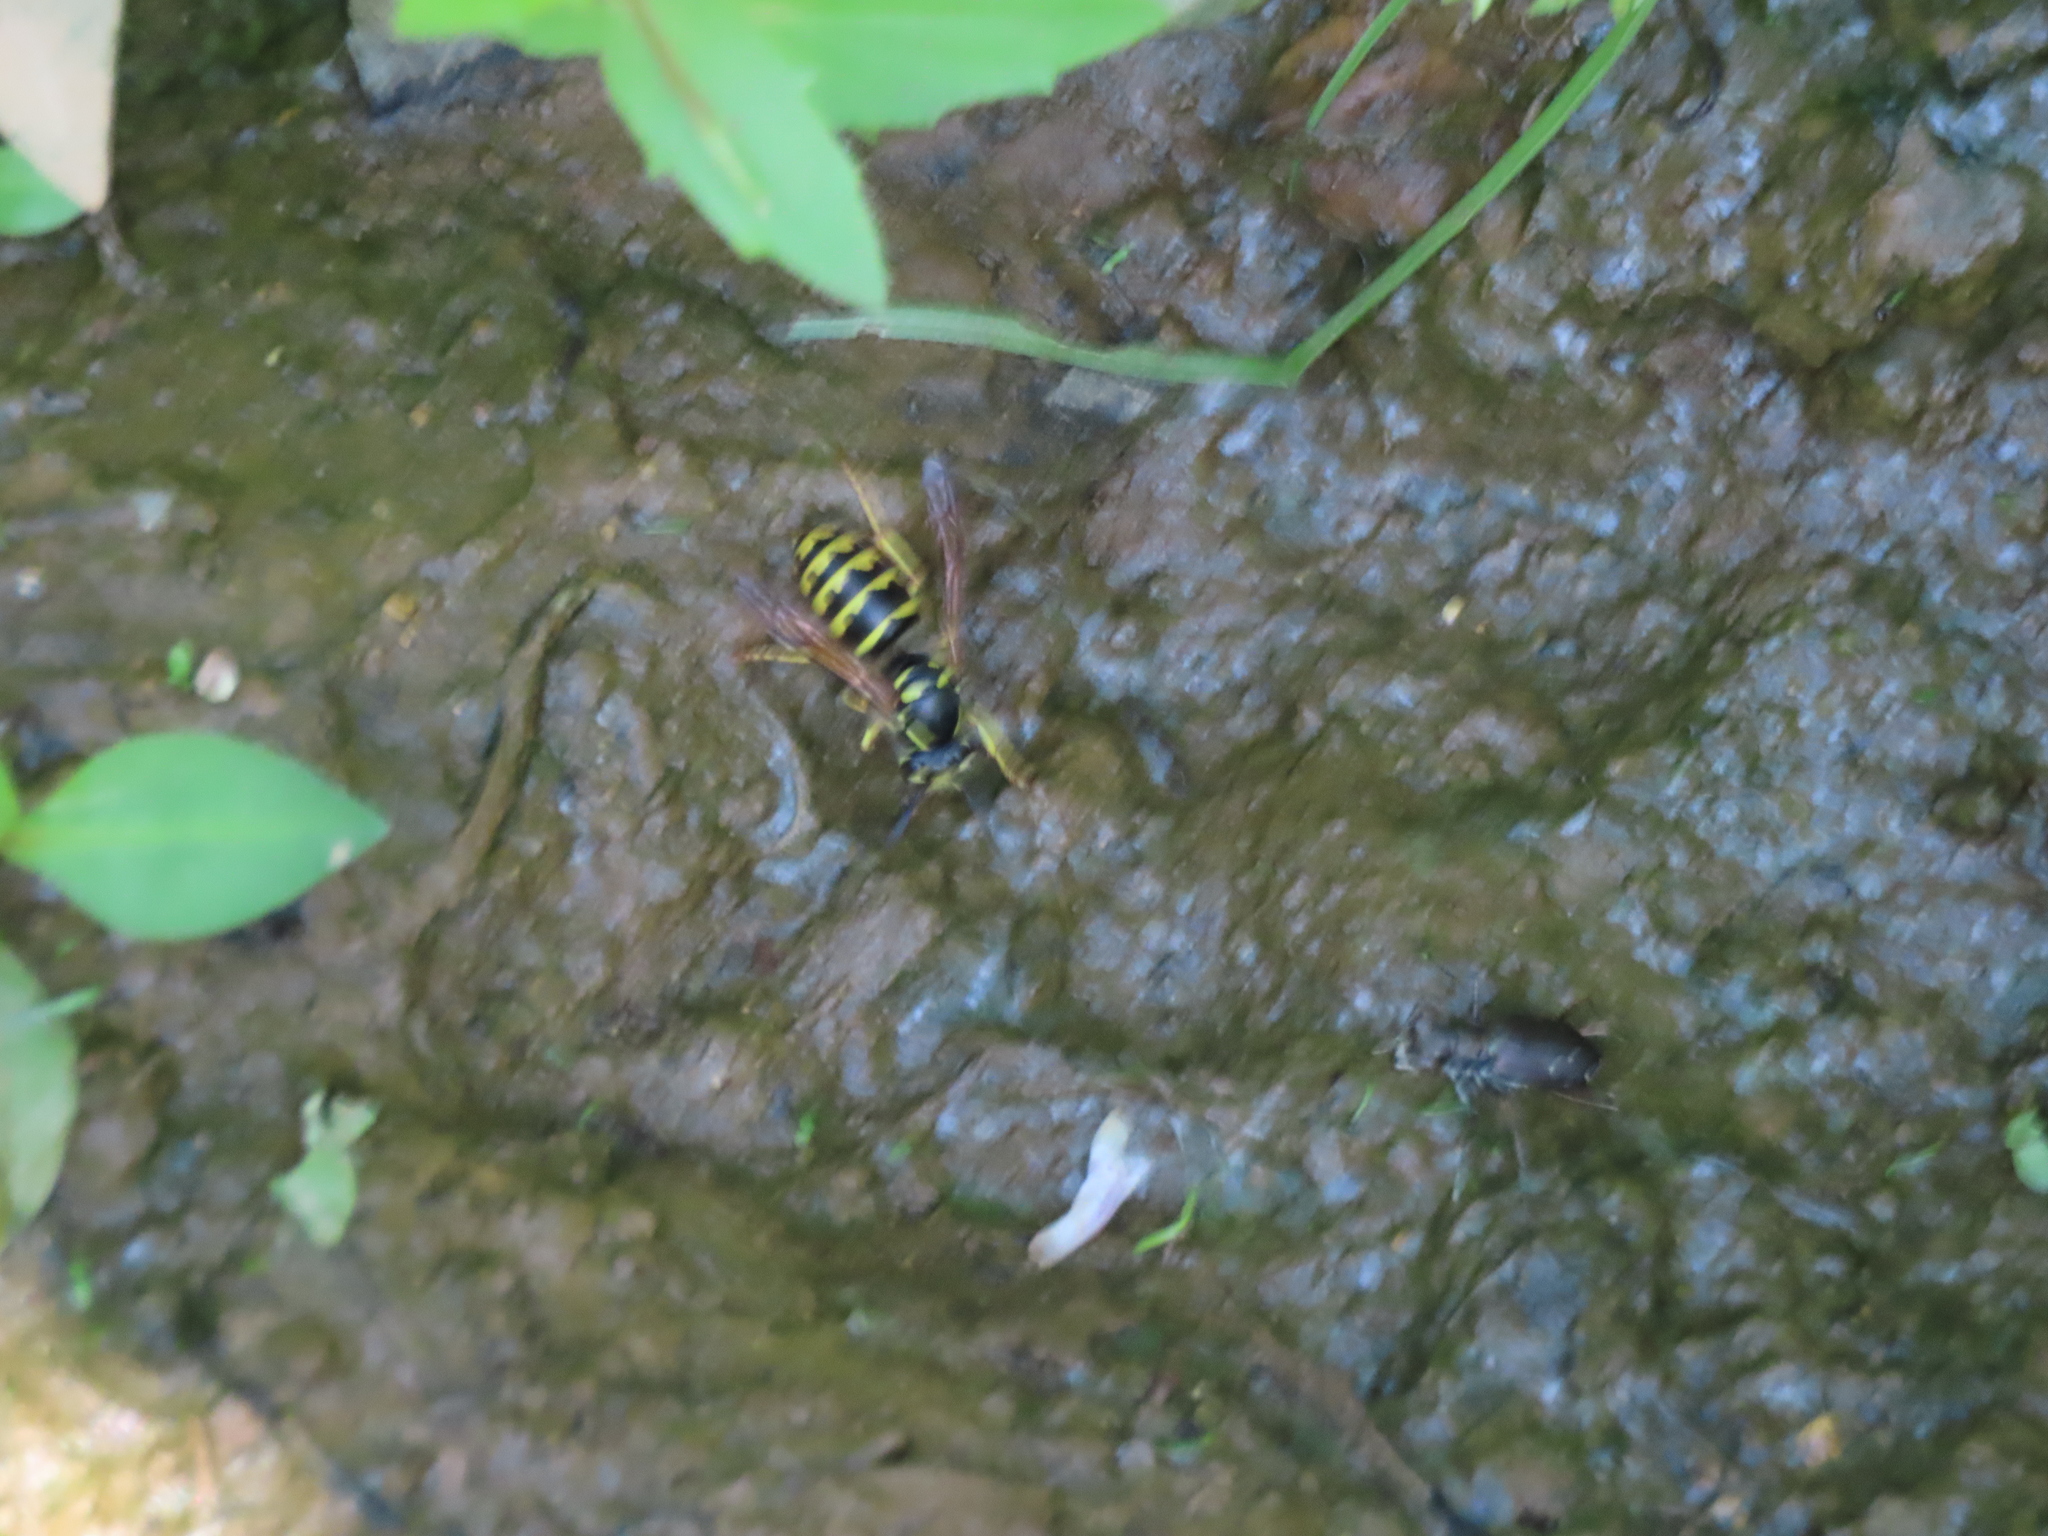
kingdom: Animalia
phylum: Arthropoda
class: Insecta
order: Coleoptera
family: Carabidae
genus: Cicindela
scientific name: Cicindela punctulata
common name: Punctured tiger beetle
